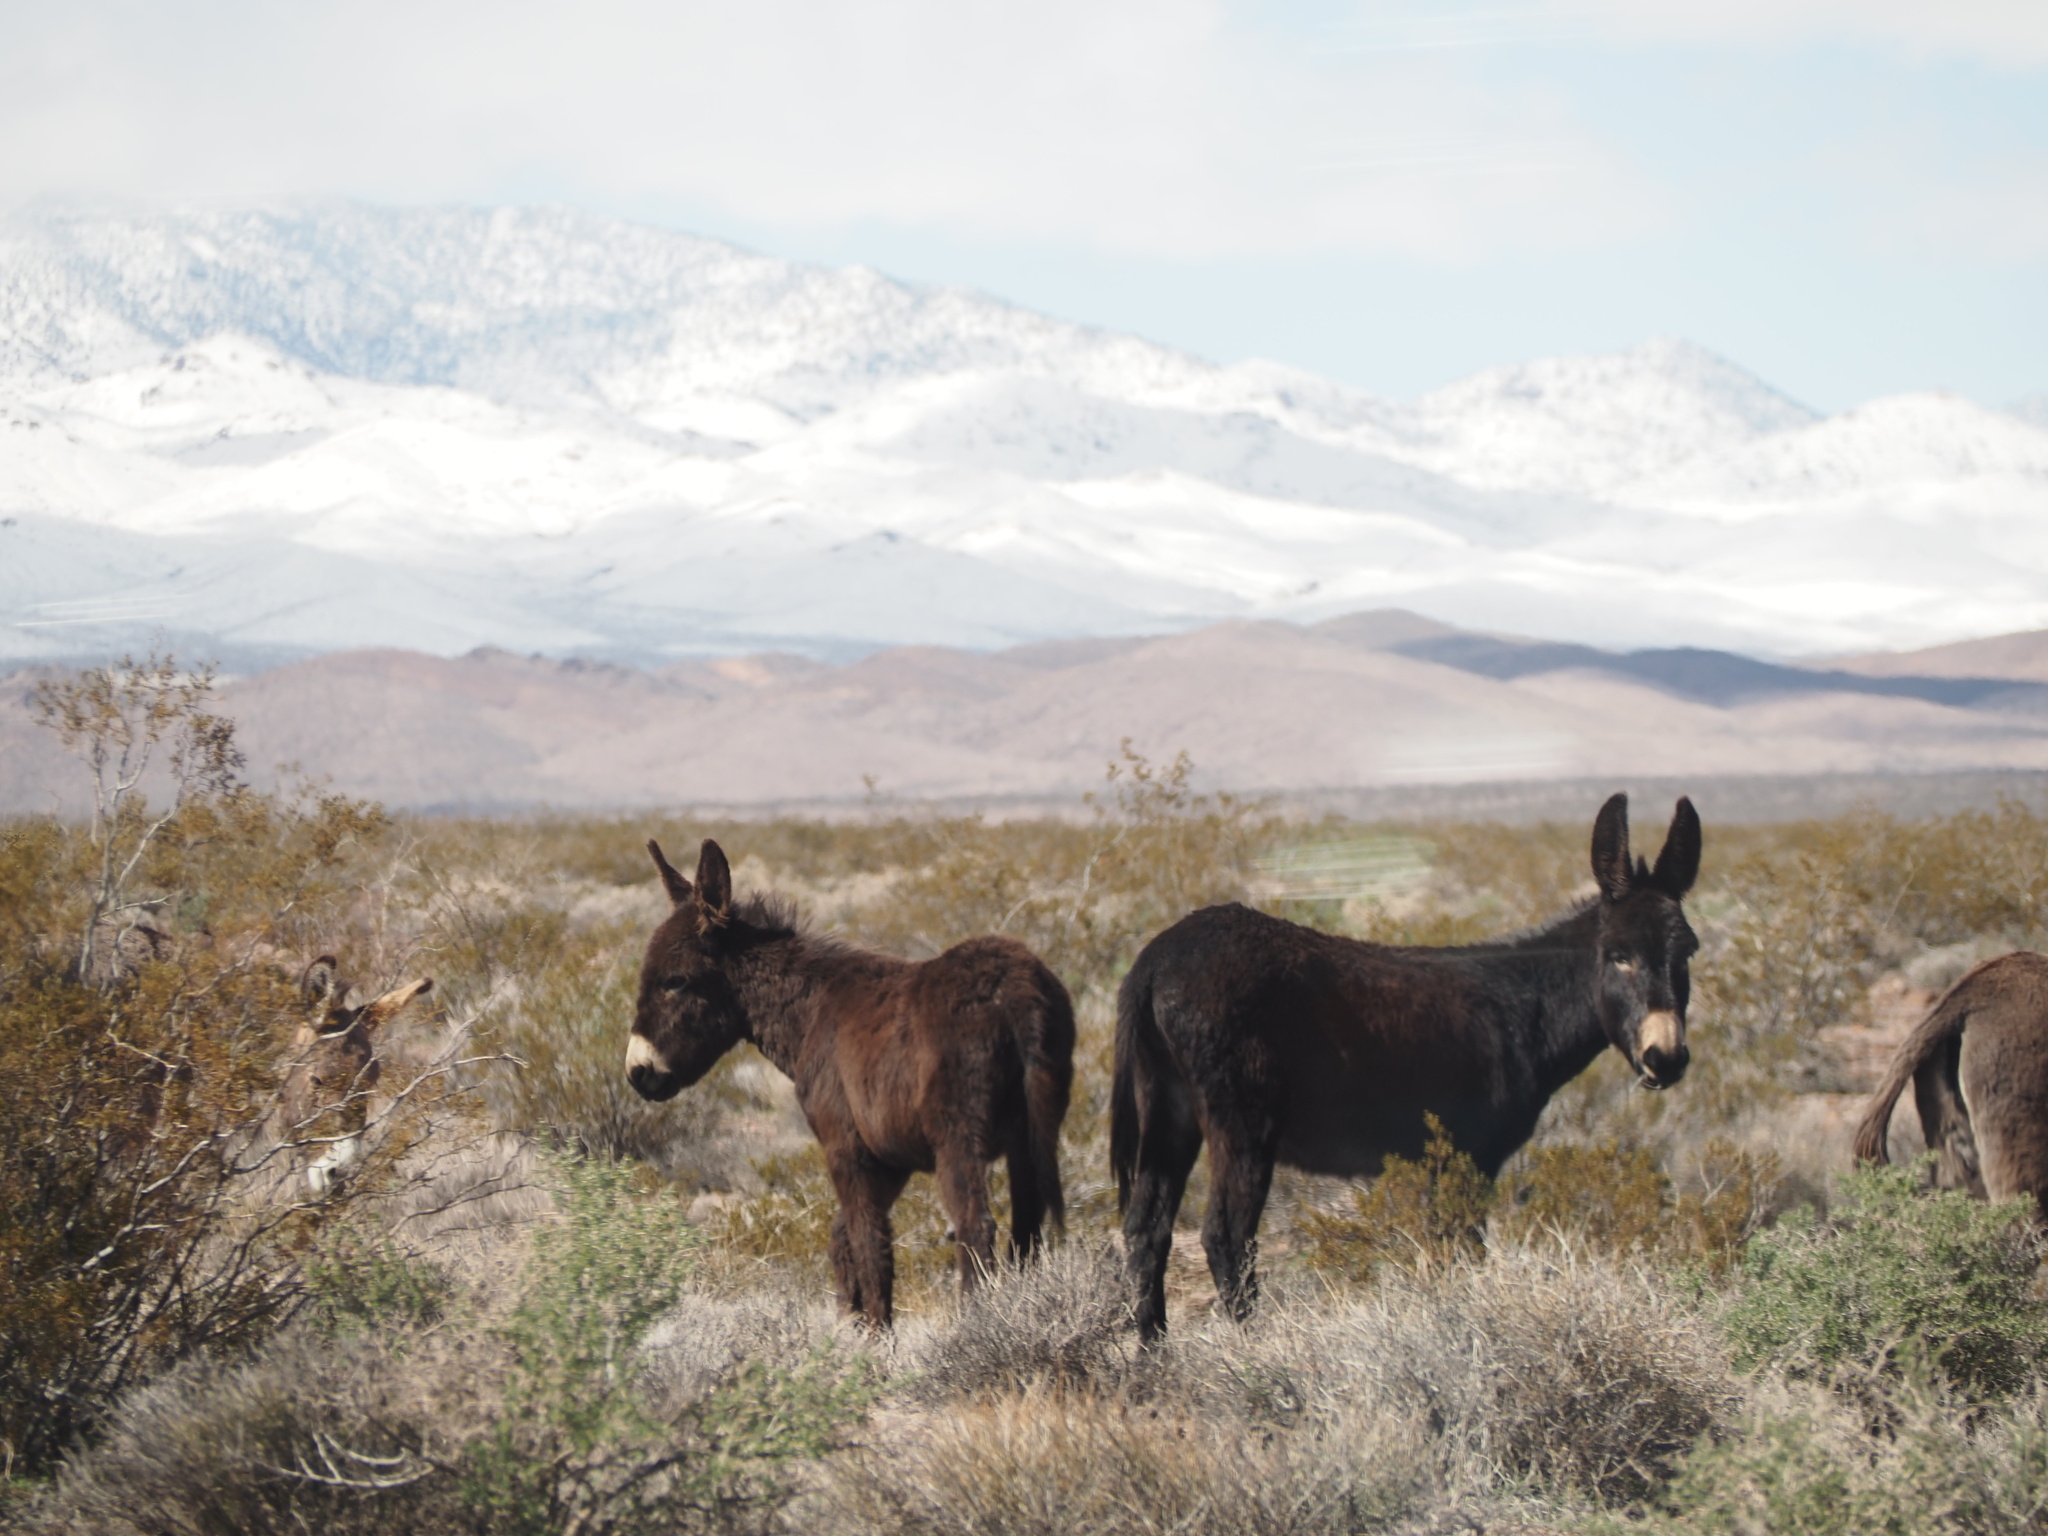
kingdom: Animalia
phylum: Chordata
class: Mammalia
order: Perissodactyla
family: Equidae
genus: Equus
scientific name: Equus asinus
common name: Ass
